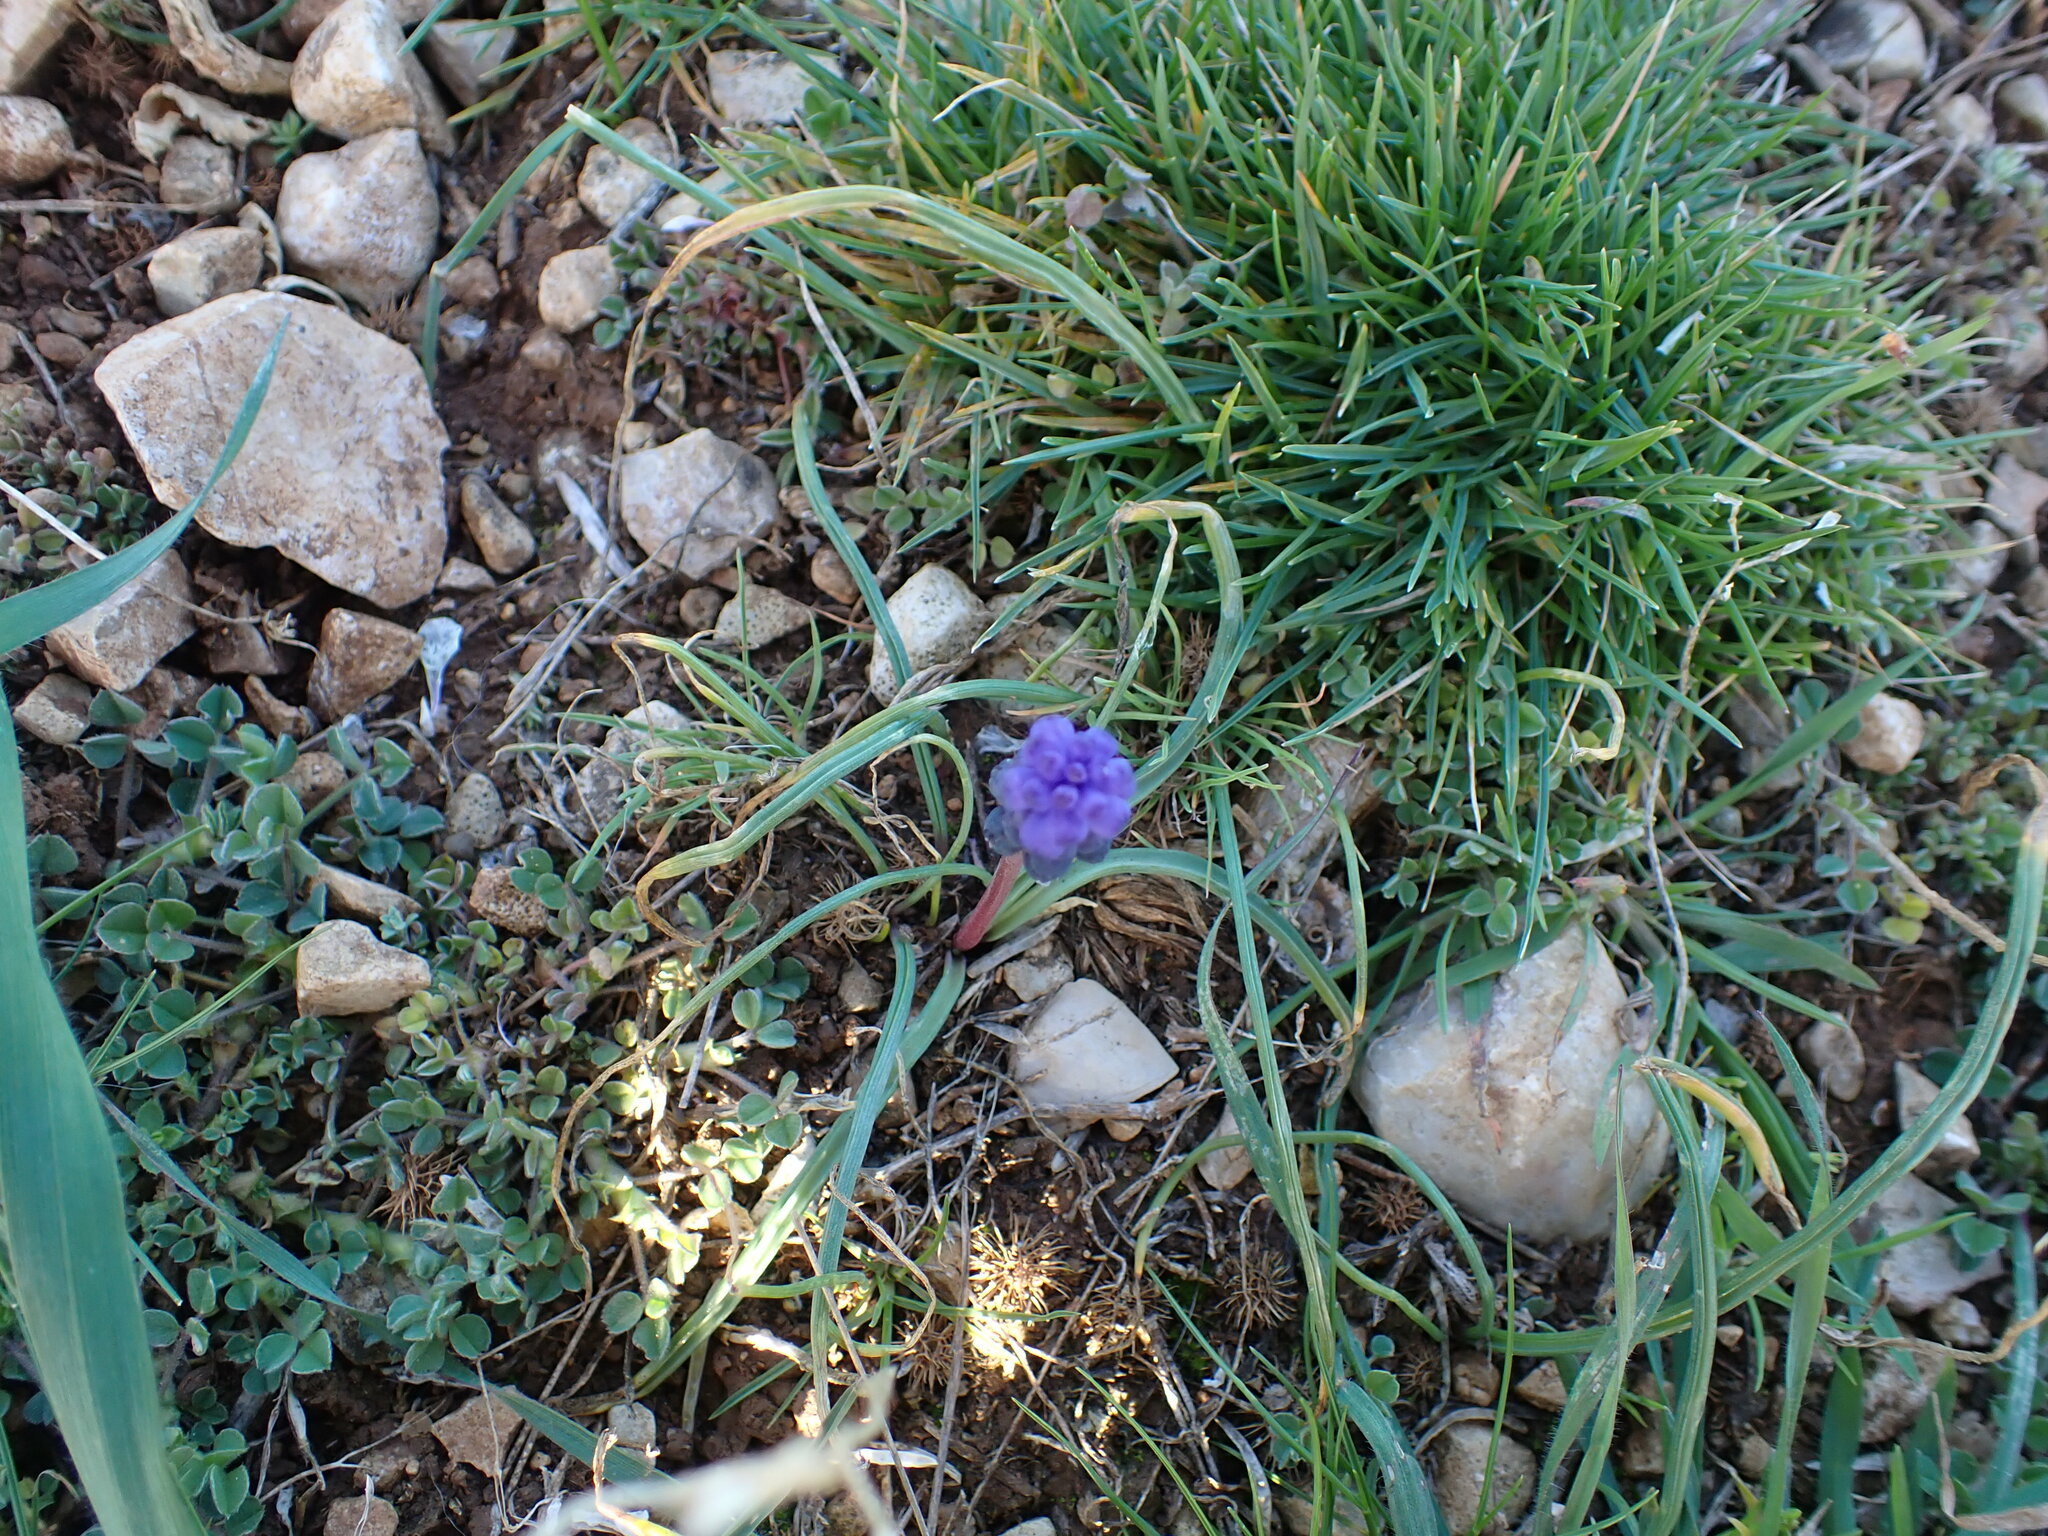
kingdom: Plantae
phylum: Tracheophyta
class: Liliopsida
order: Asparagales
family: Asparagaceae
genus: Muscari
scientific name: Muscari neglectum
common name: Grape-hyacinth
